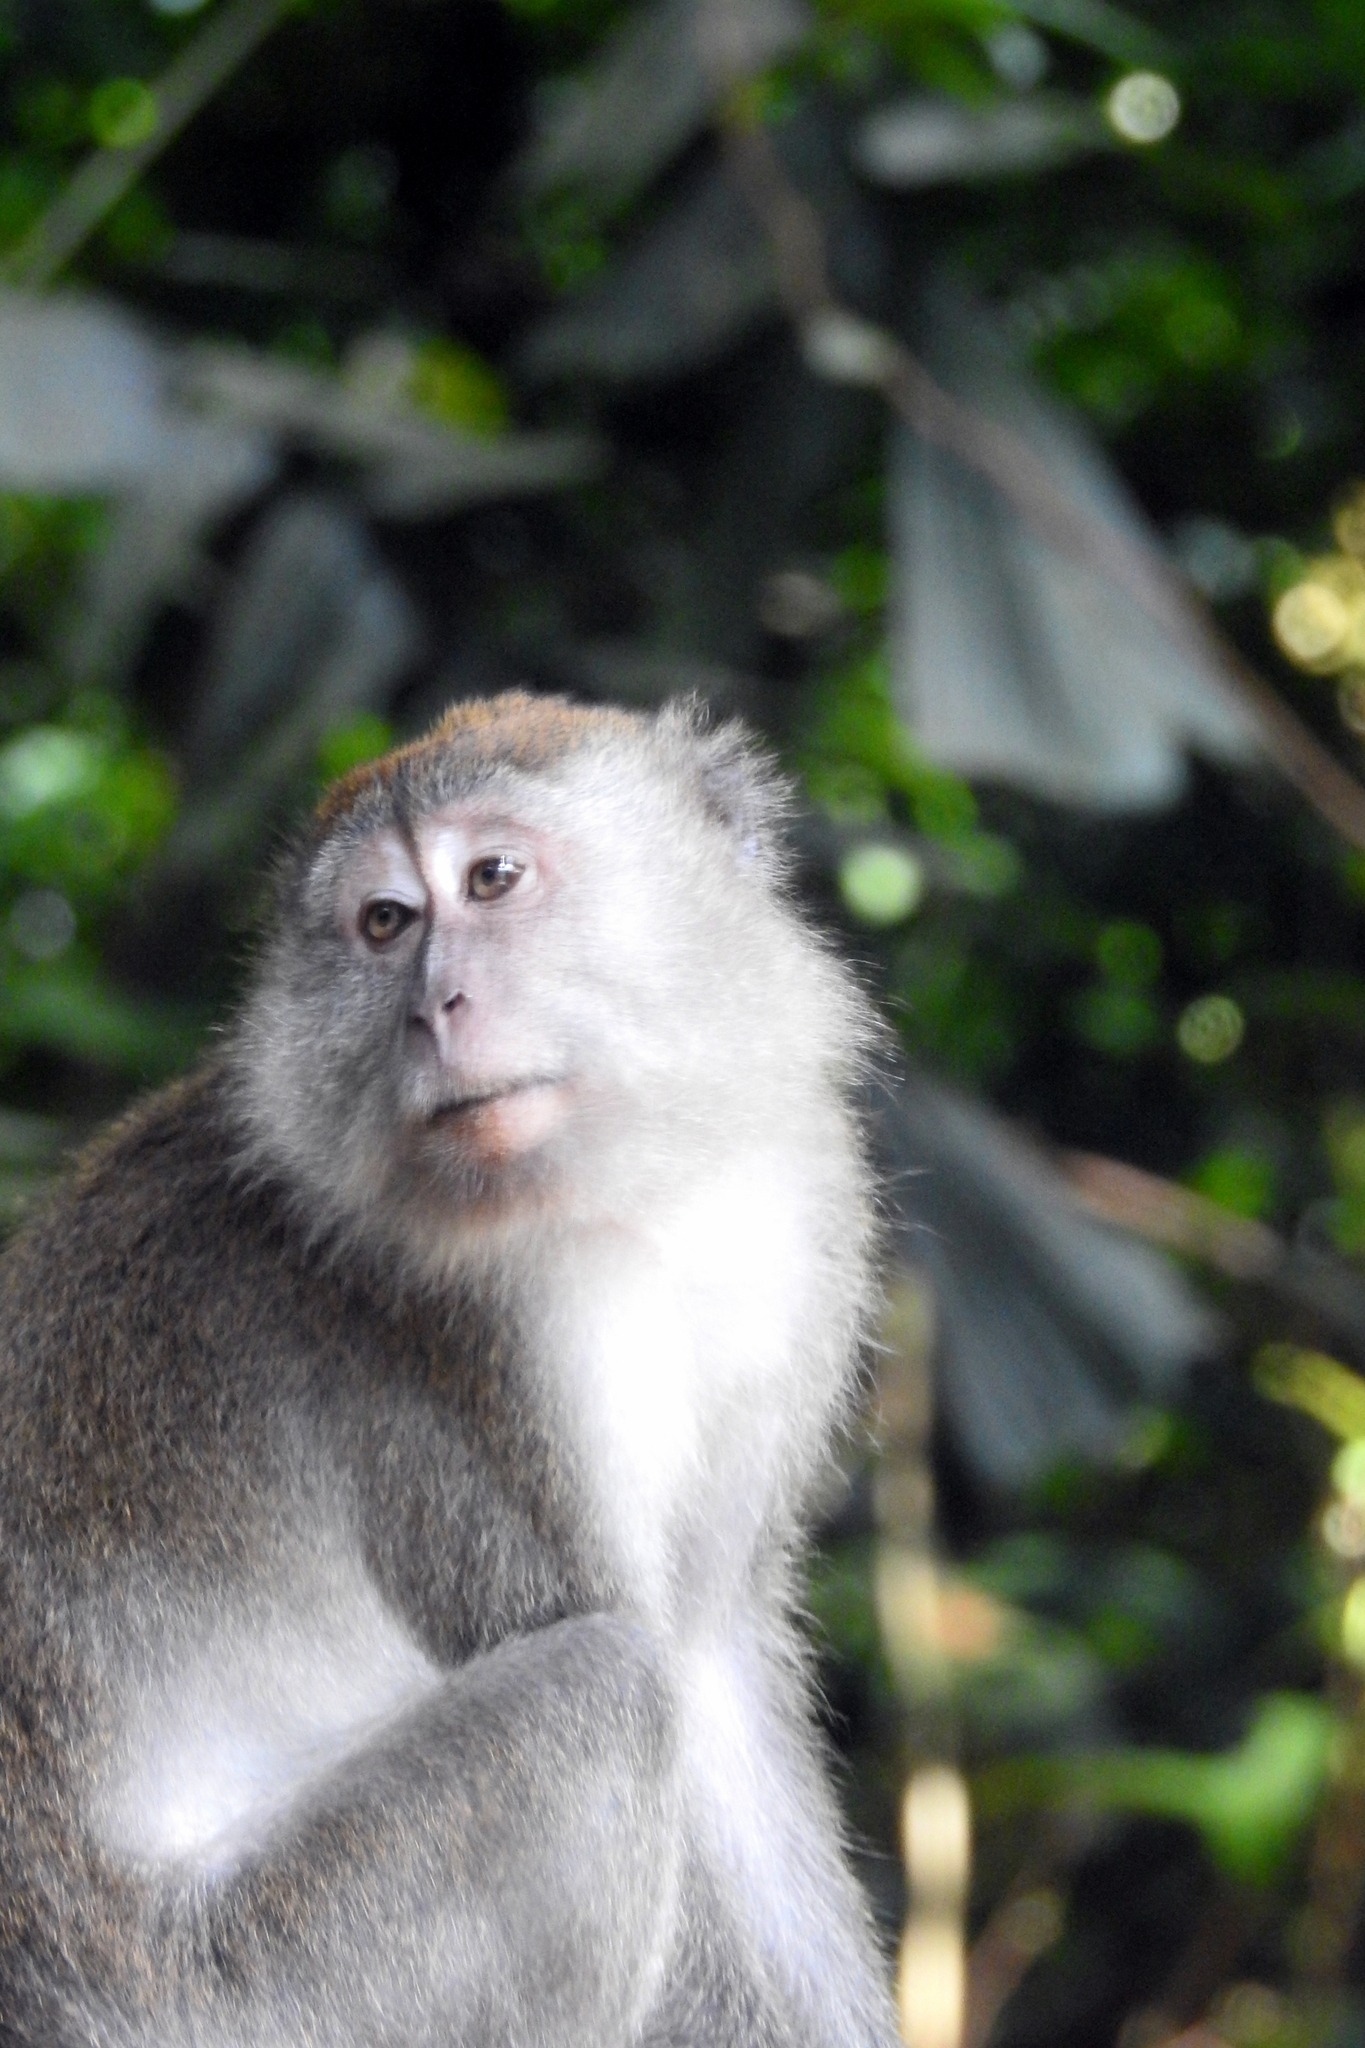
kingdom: Animalia
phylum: Chordata
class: Mammalia
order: Primates
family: Cercopithecidae
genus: Macaca
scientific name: Macaca fascicularis
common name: Crab-eating macaque
